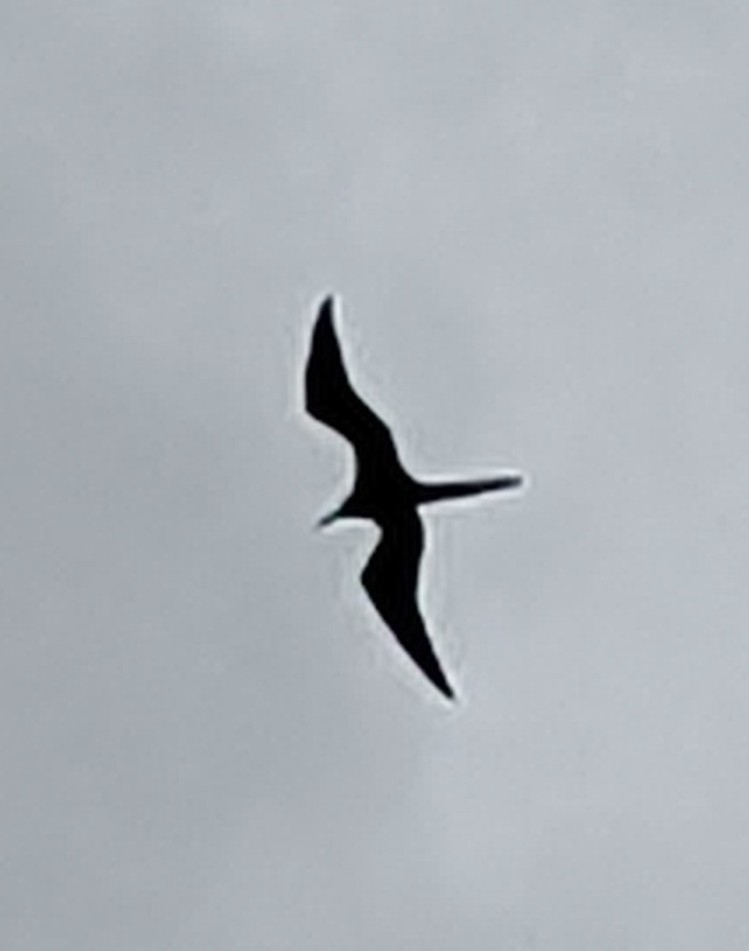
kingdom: Animalia
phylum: Chordata
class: Aves
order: Suliformes
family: Fregatidae
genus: Fregata
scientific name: Fregata magnificens
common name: Magnificent frigatebird
